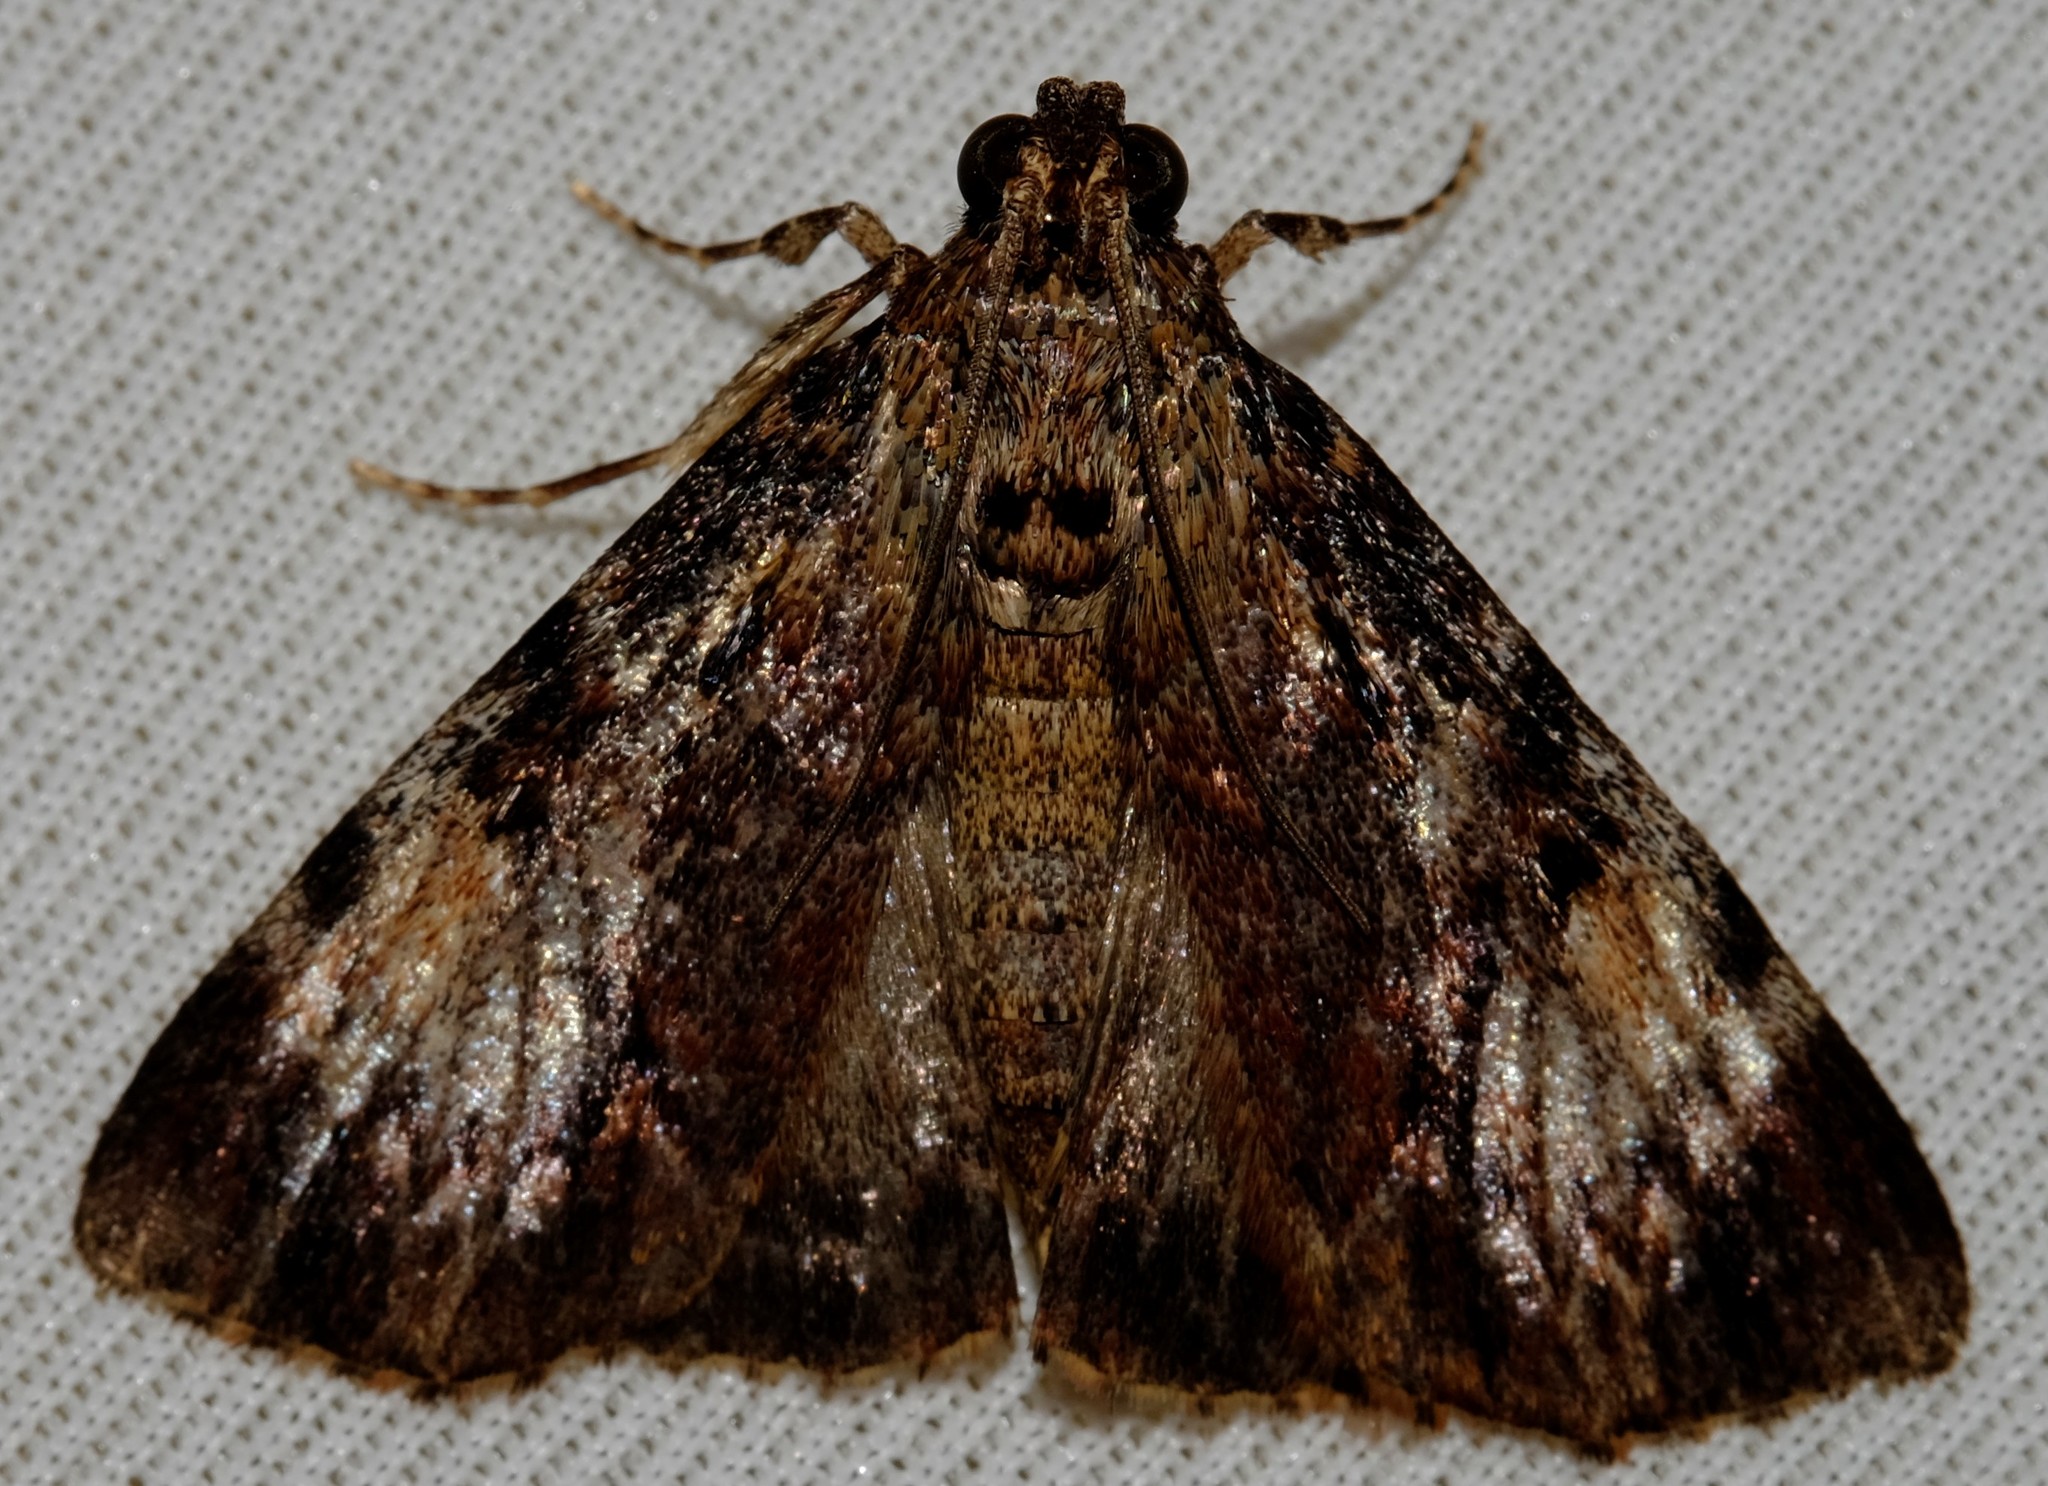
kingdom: Animalia
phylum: Arthropoda
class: Insecta
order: Lepidoptera
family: Pyralidae
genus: Salma
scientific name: Salma cholica
